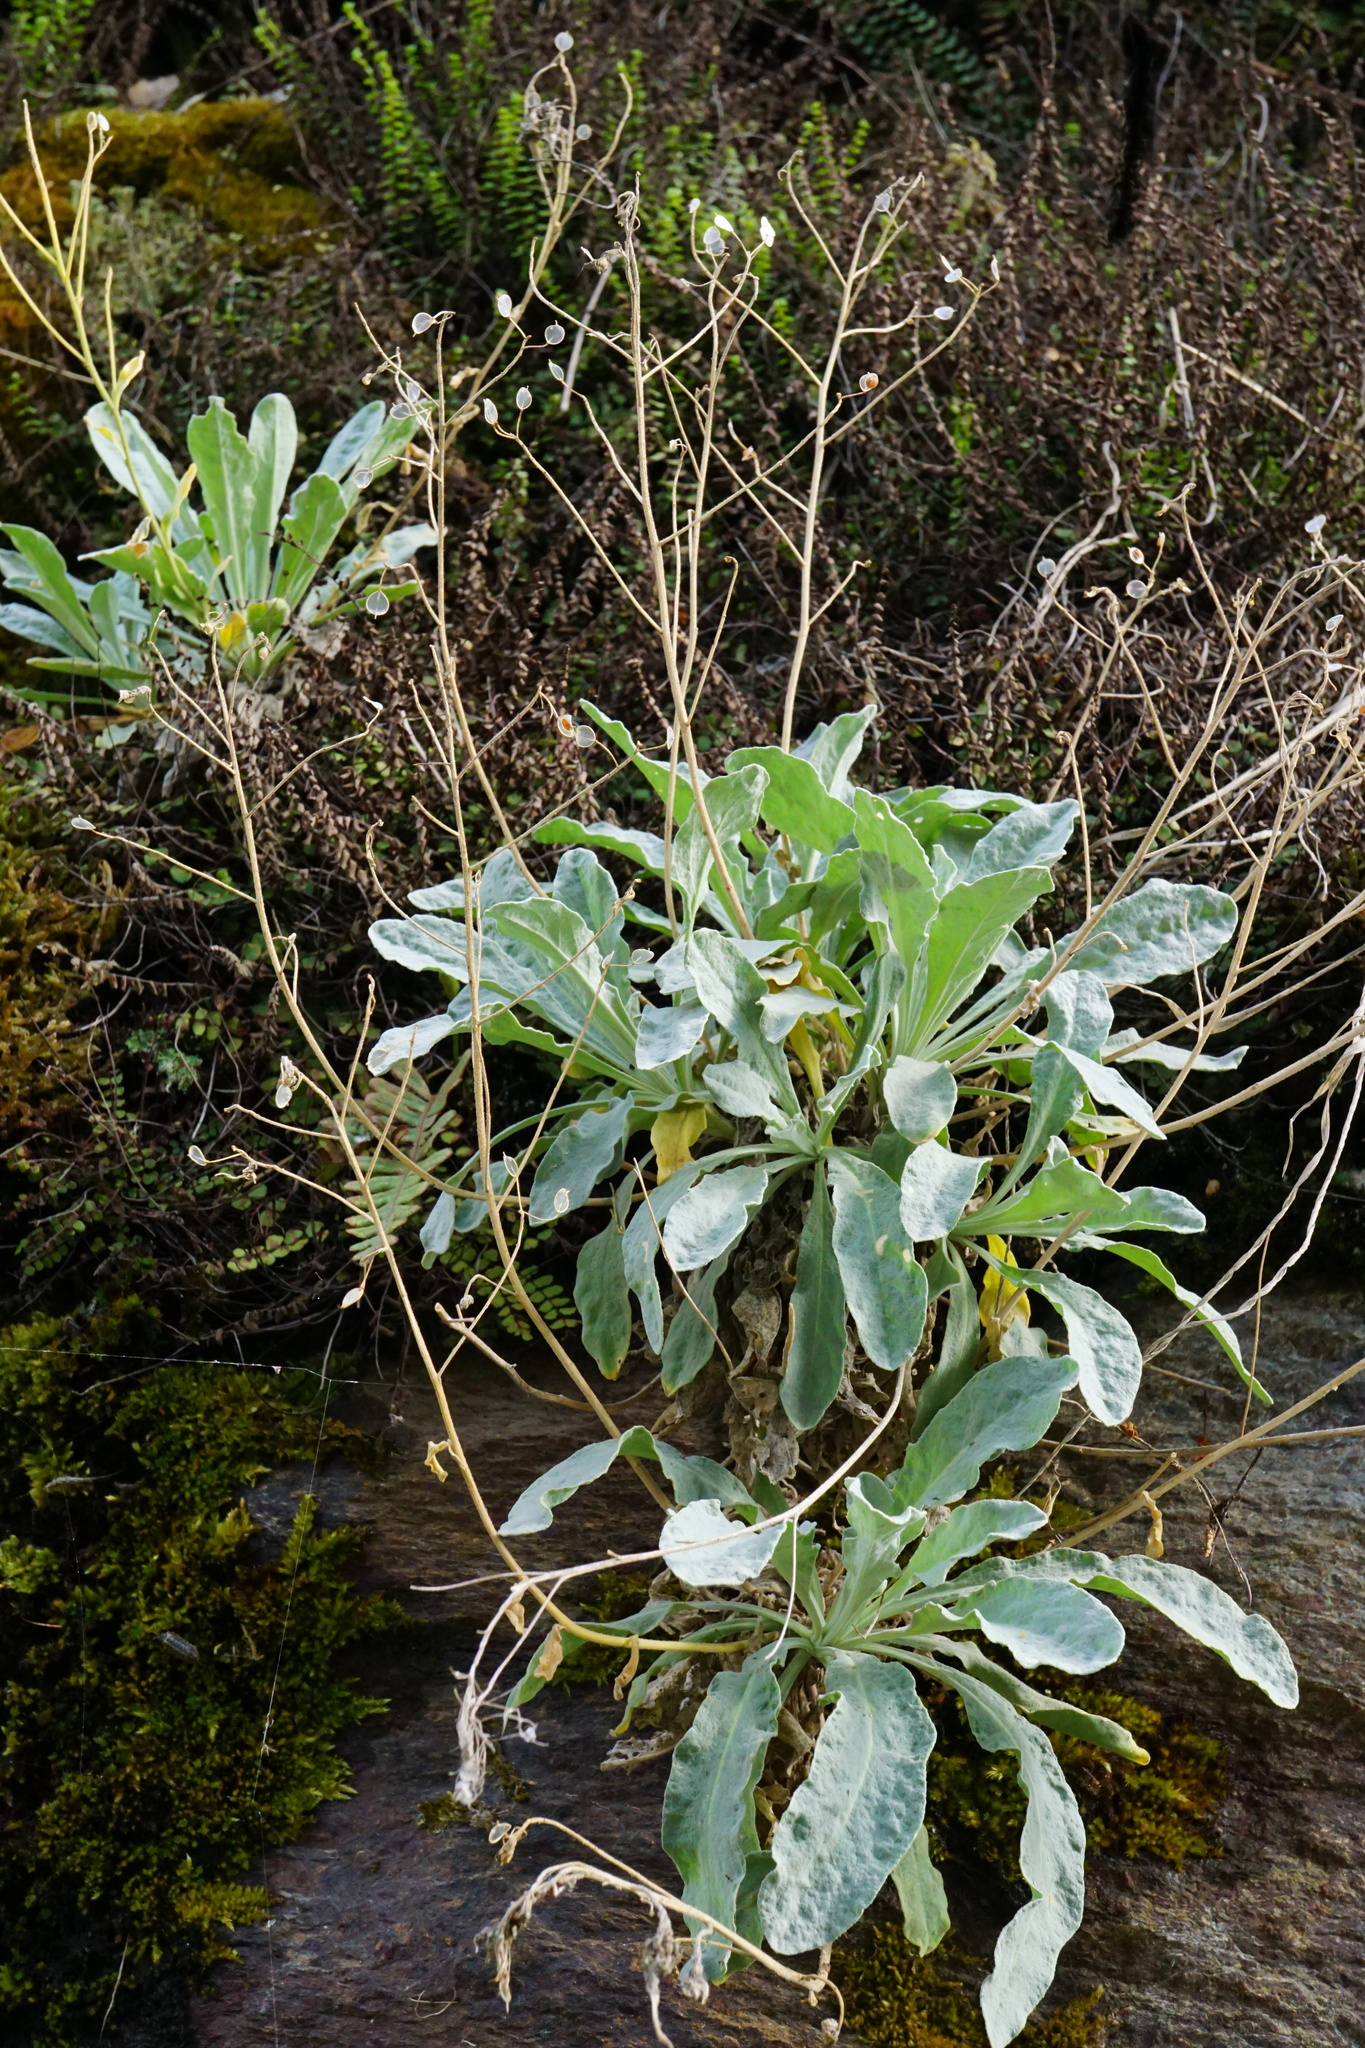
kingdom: Plantae
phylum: Tracheophyta
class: Magnoliopsida
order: Brassicales
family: Brassicaceae
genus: Aurinia
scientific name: Aurinia saxatilis
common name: Golden-tuft alyssum
